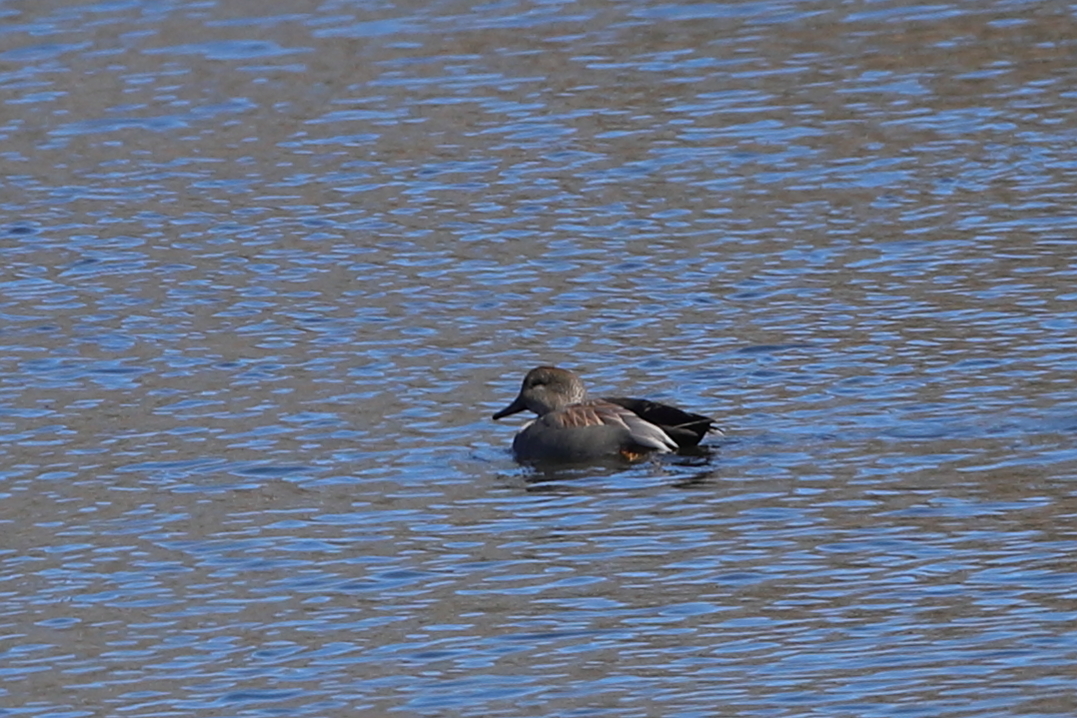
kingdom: Animalia
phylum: Chordata
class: Aves
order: Anseriformes
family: Anatidae
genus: Mareca
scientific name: Mareca strepera
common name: Gadwall
